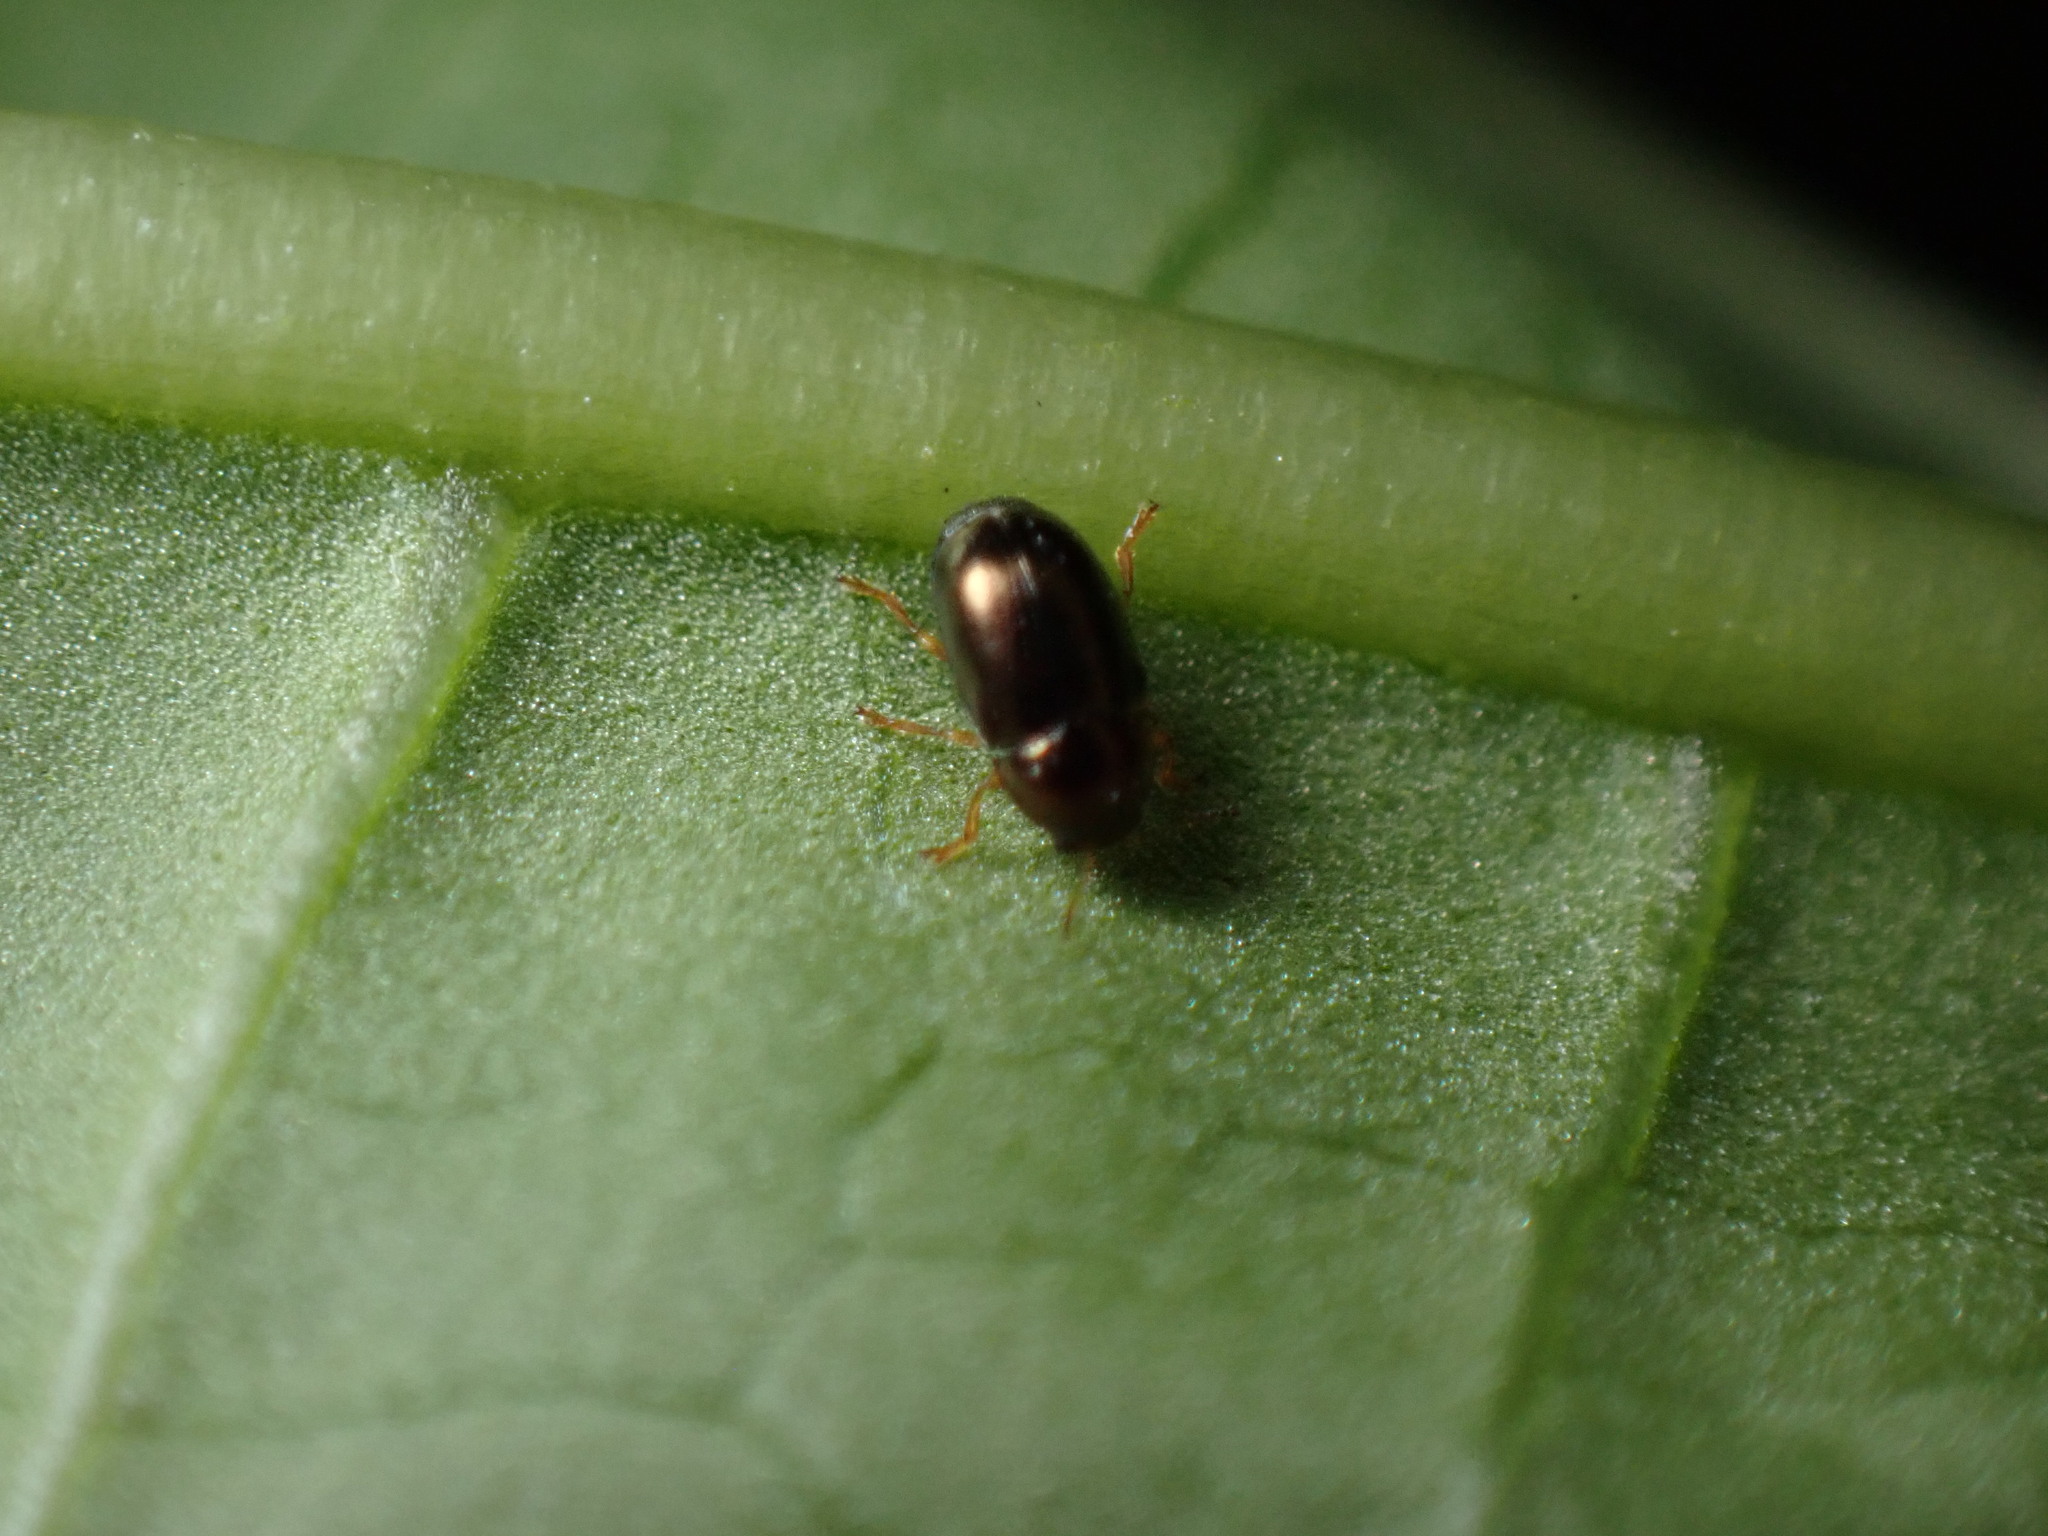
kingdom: Animalia
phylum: Arthropoda
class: Insecta
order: Coleoptera
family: Chrysomelidae
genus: Diachus
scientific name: Diachus auratus
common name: Bronze leaf beetle
